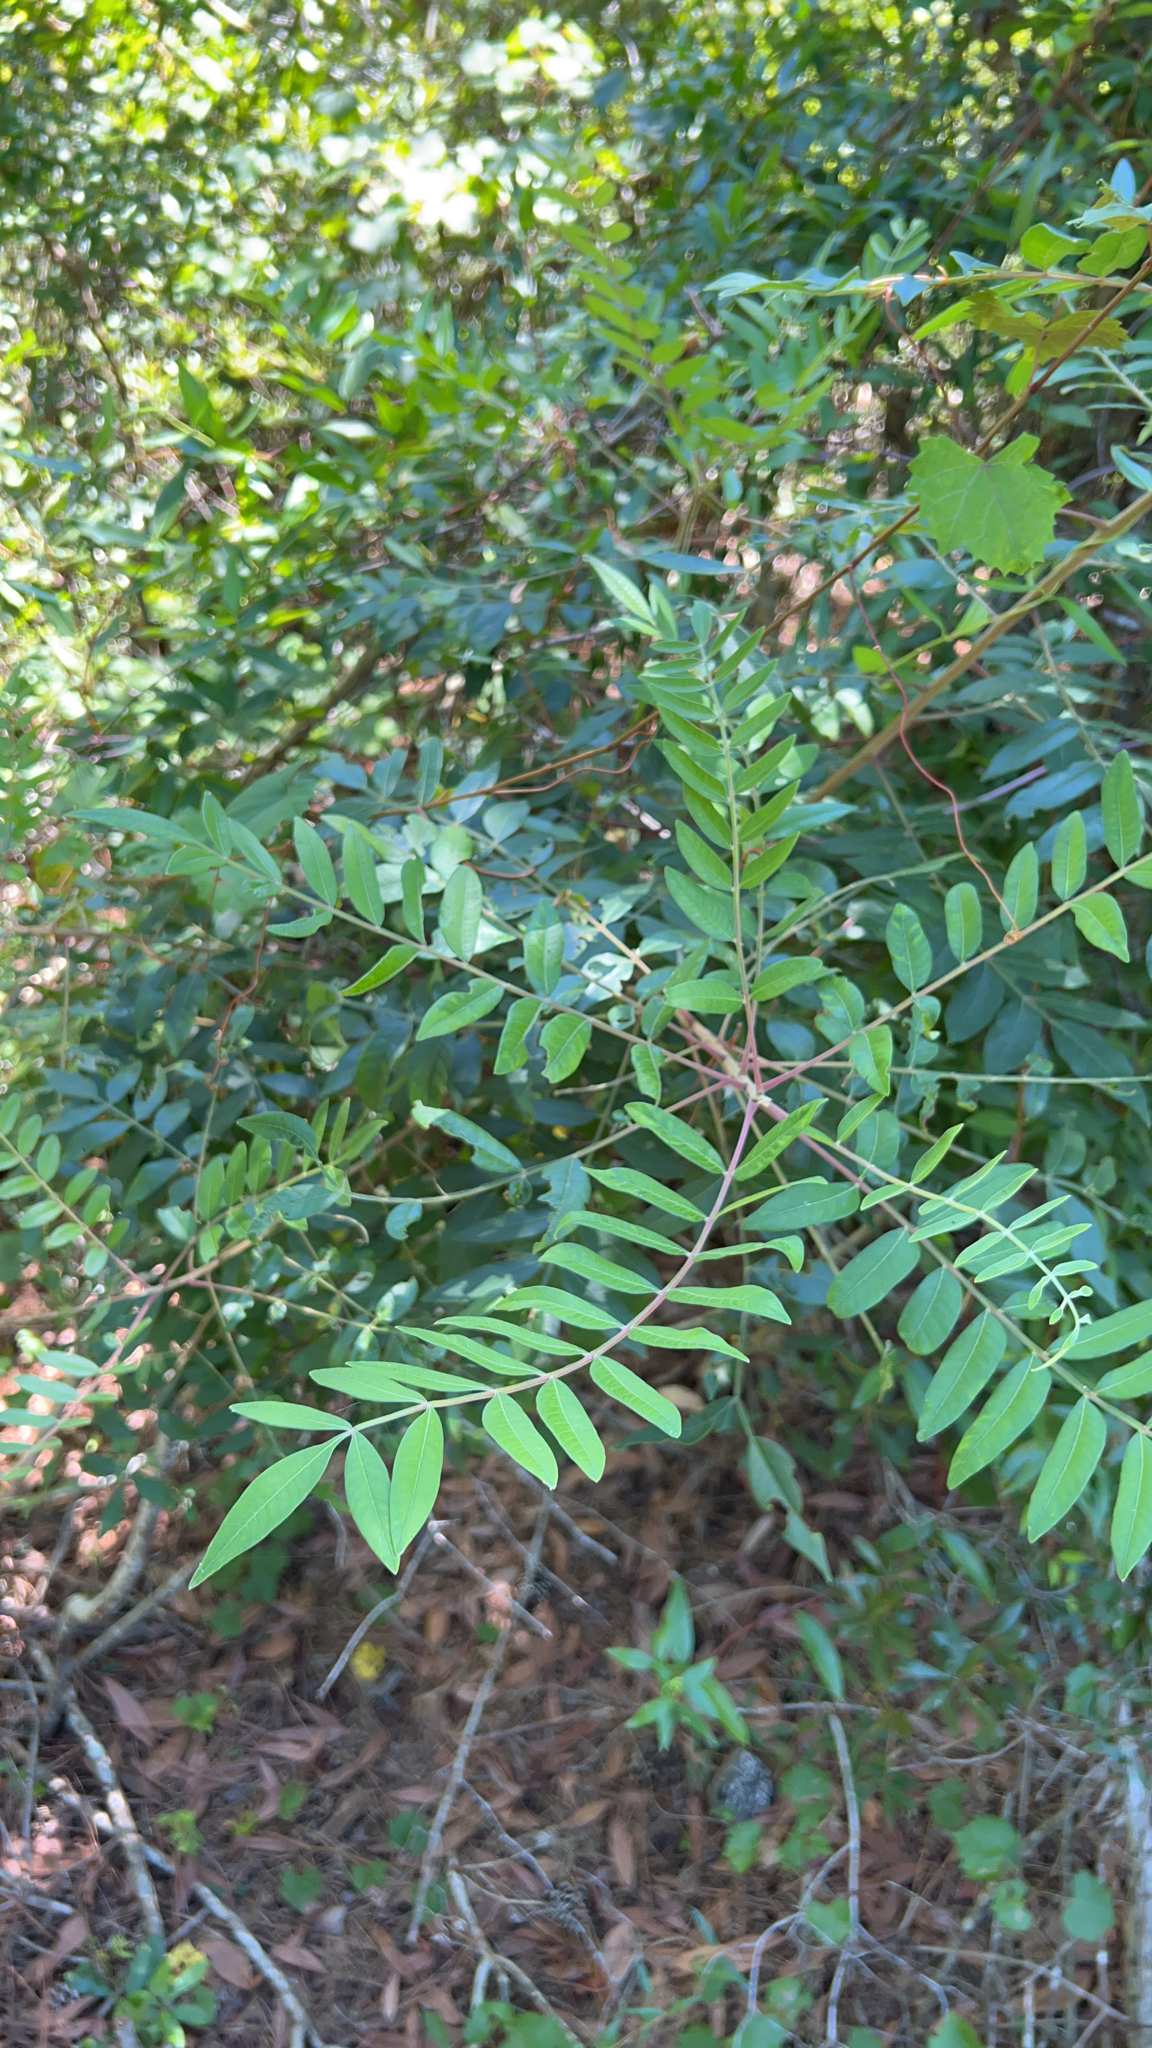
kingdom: Plantae
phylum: Tracheophyta
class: Magnoliopsida
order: Sapindales
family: Anacardiaceae
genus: Rhus
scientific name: Rhus copallina
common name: Shining sumac
